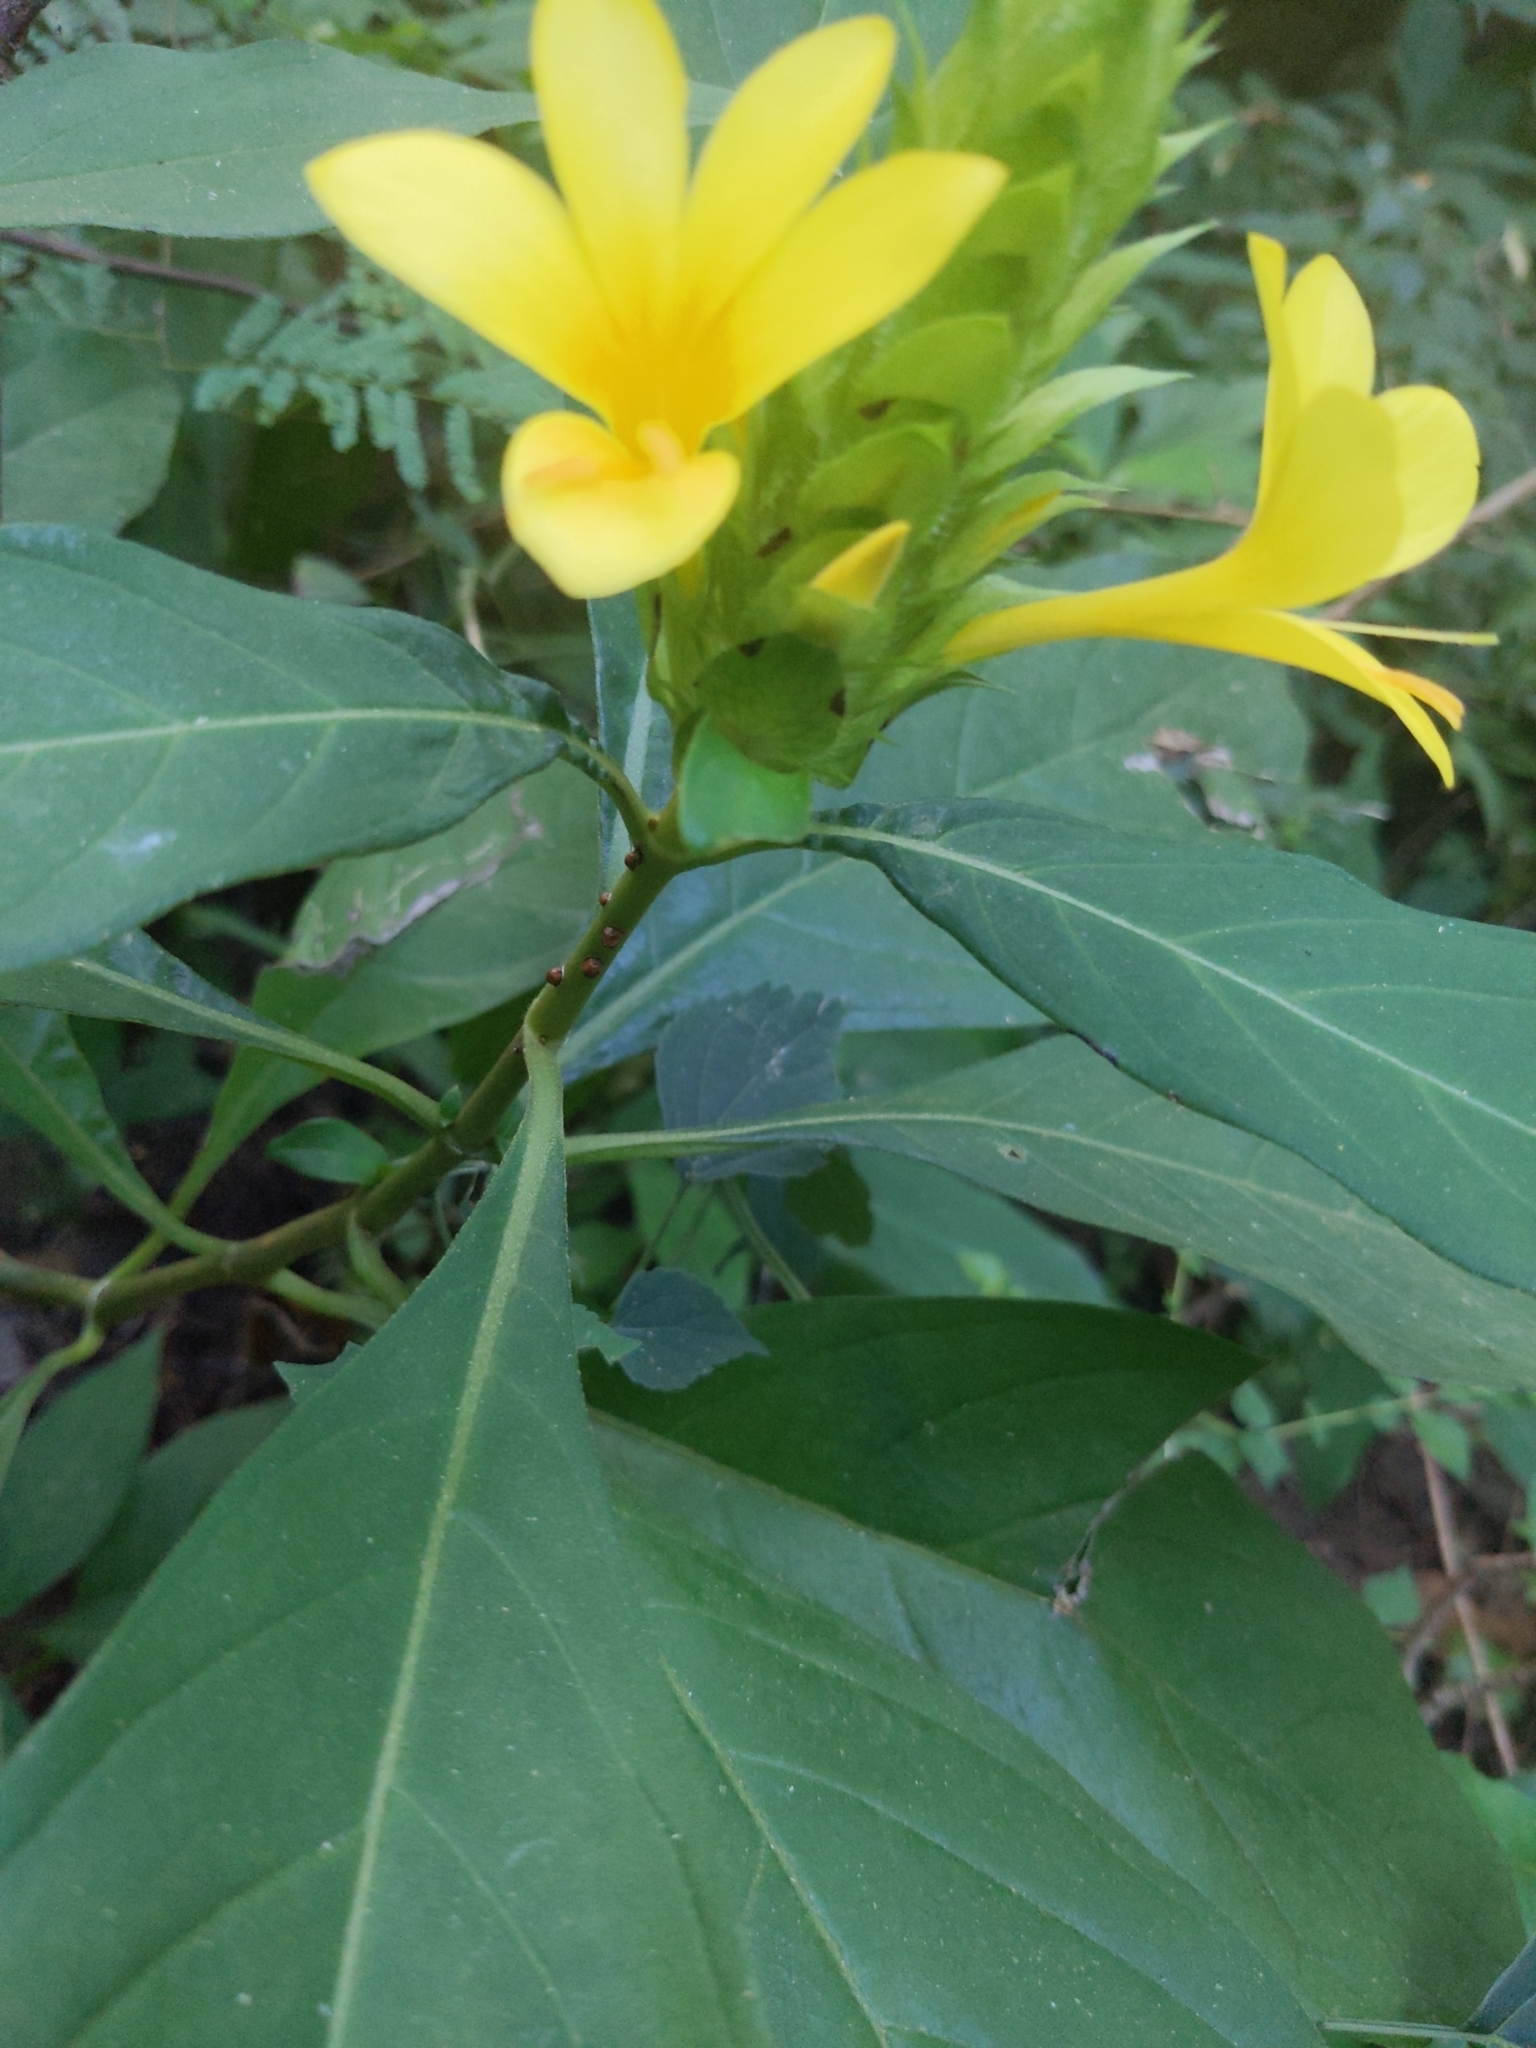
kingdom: Plantae
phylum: Tracheophyta
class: Magnoliopsida
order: Lamiales
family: Acanthaceae
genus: Barleria
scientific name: Barleria oenotheroides
